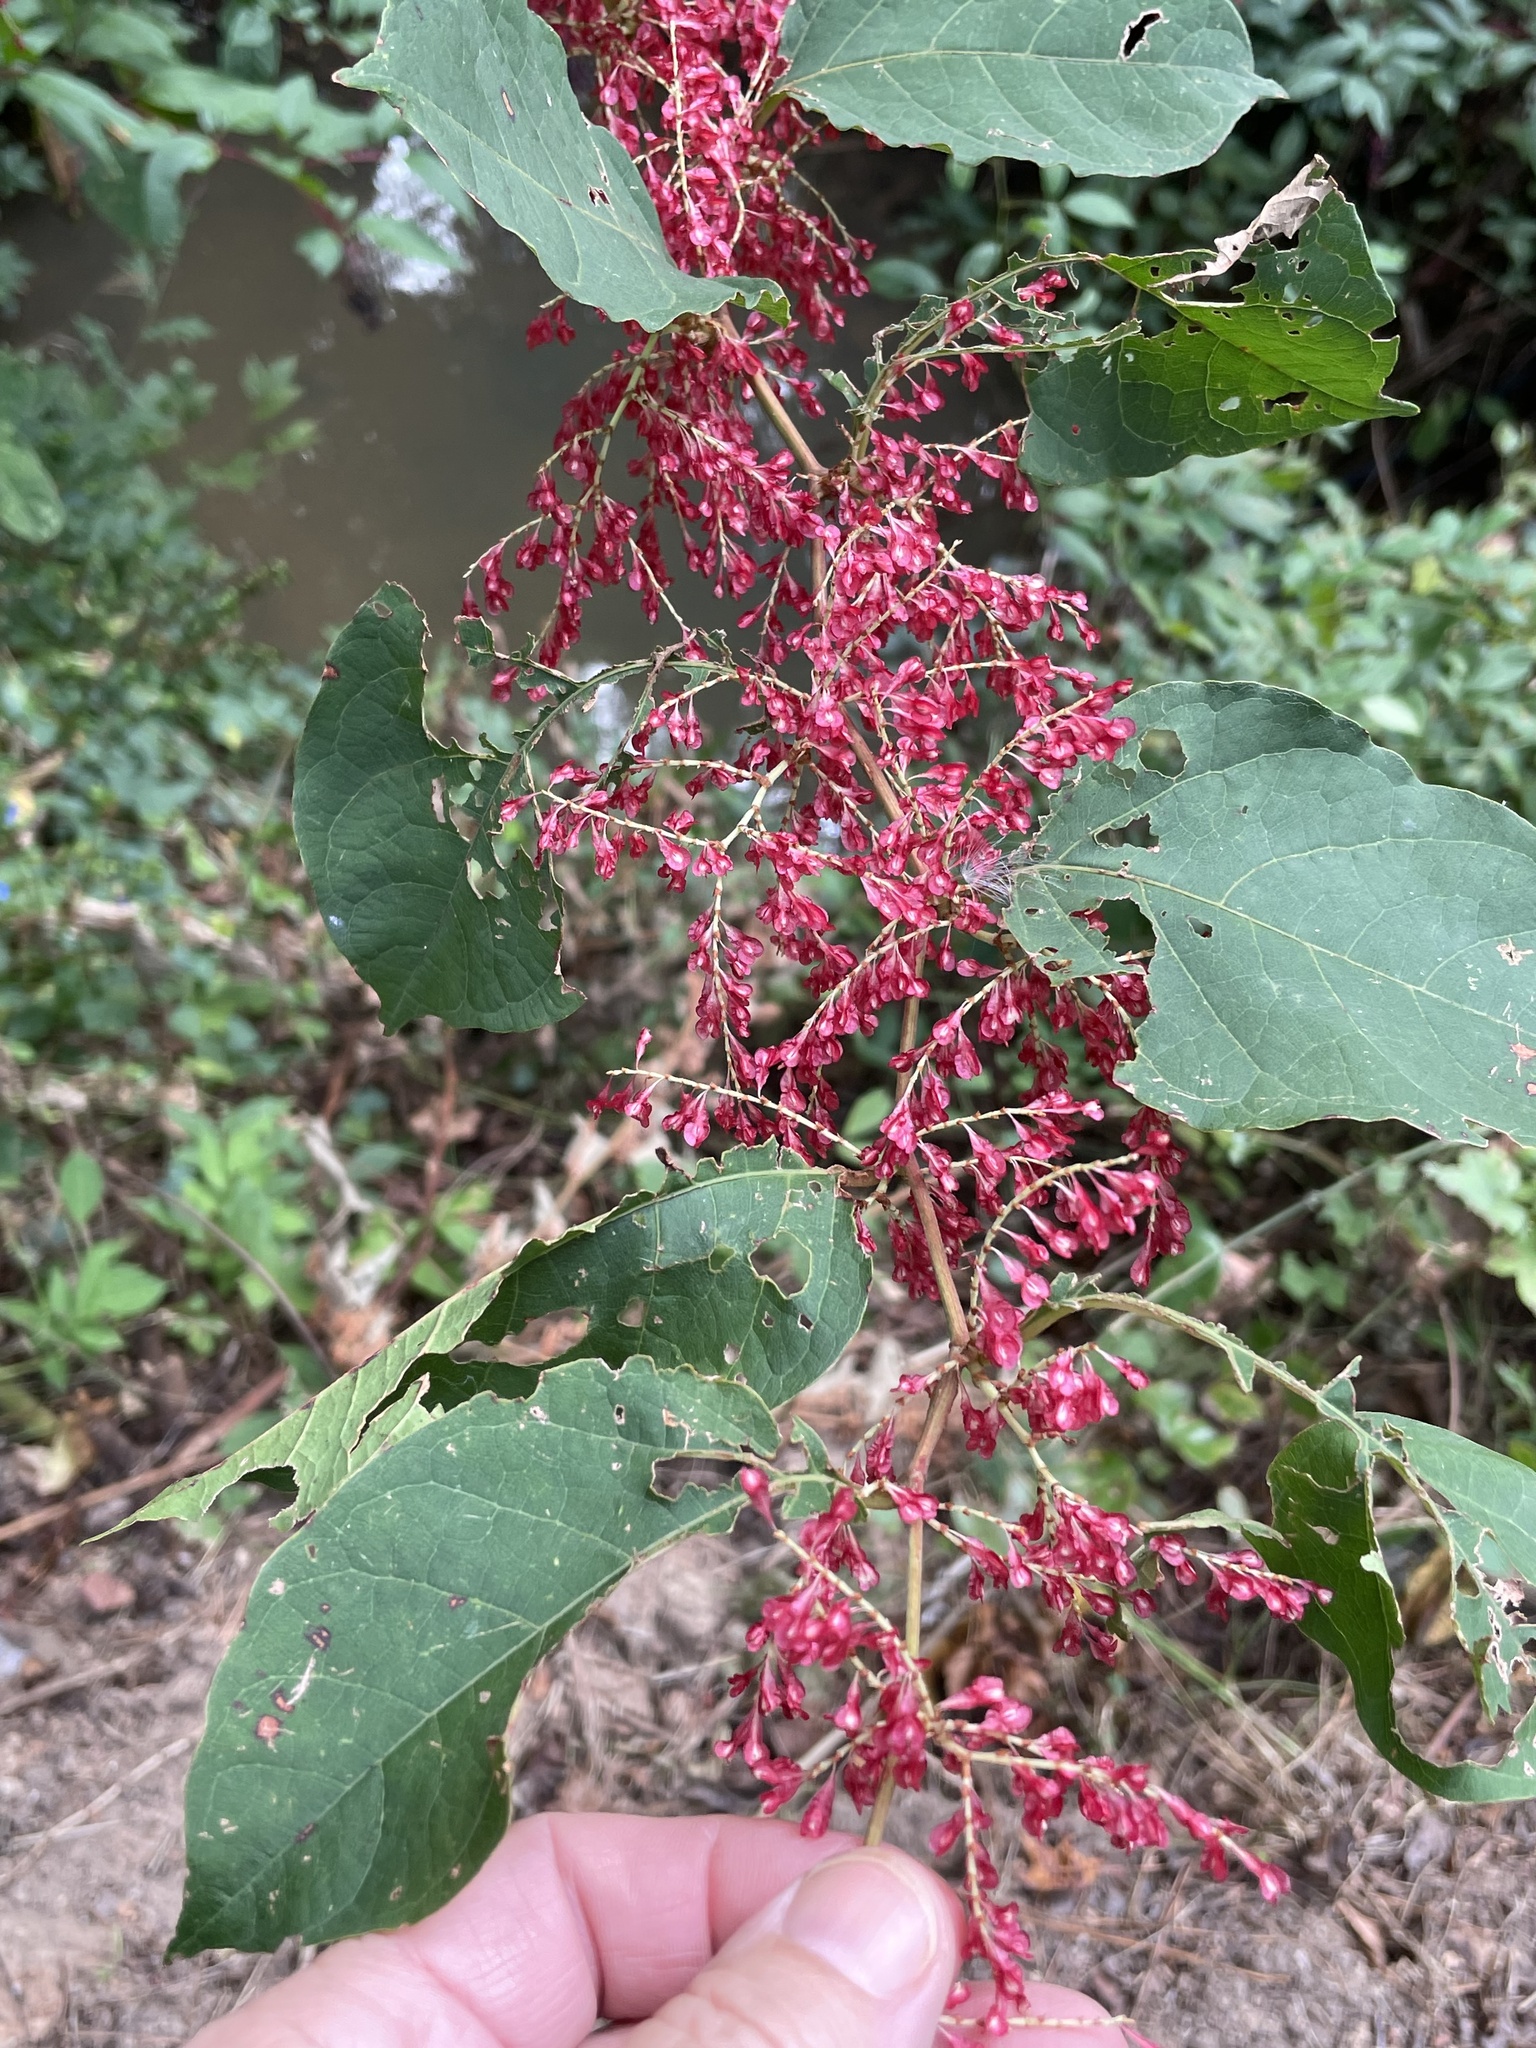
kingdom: Plantae
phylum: Tracheophyta
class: Magnoliopsida
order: Caryophyllales
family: Polygonaceae
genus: Reynoutria
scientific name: Reynoutria japonica
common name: Japanese knotweed
